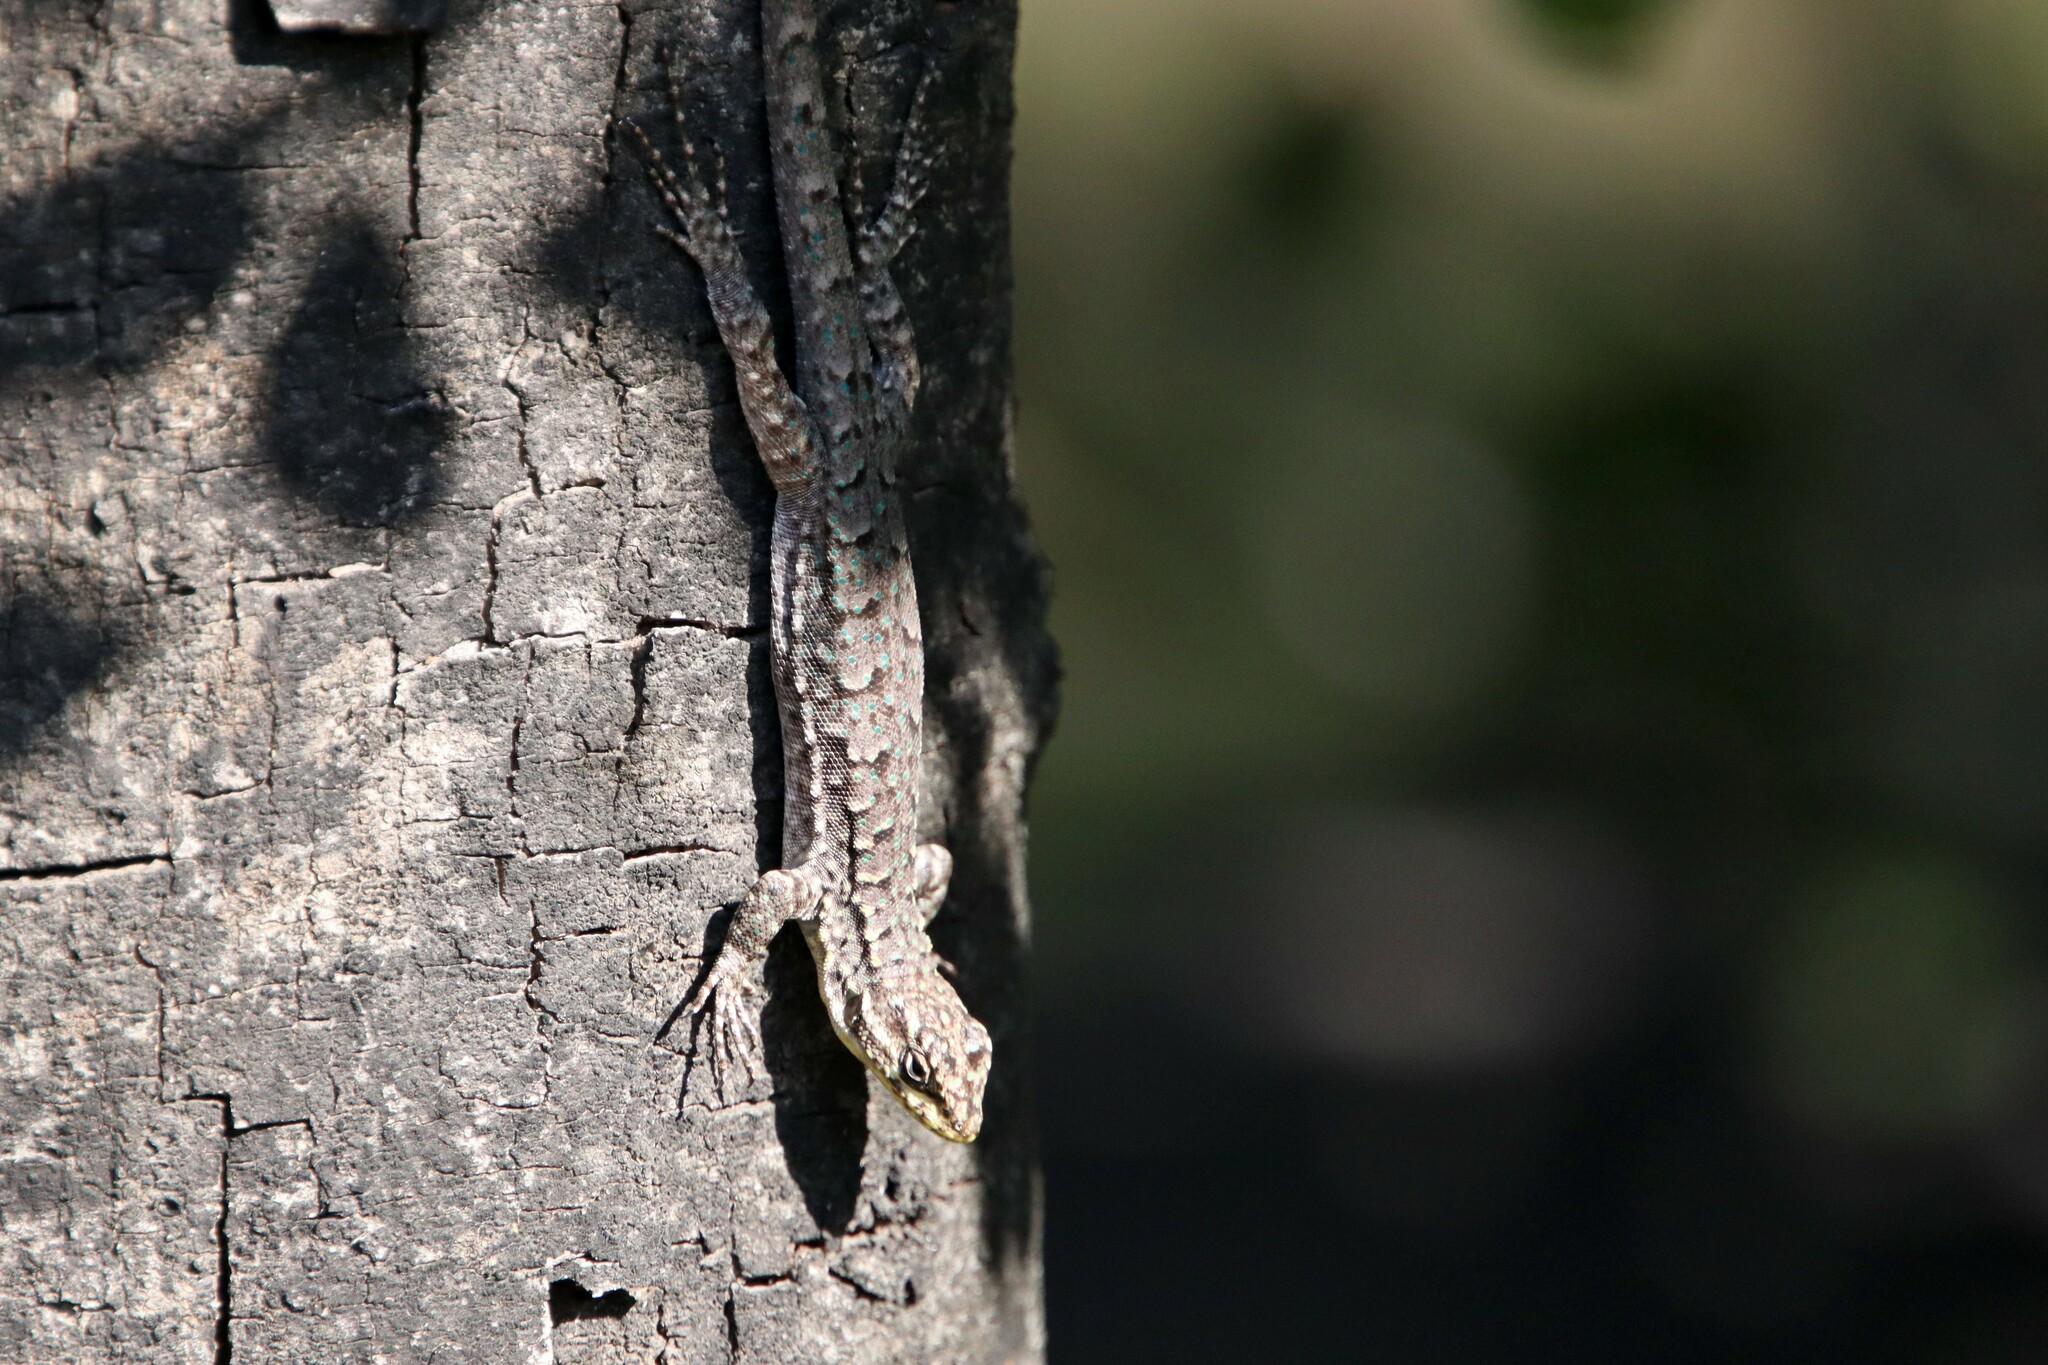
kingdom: Animalia
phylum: Chordata
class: Squamata
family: Liolaemidae
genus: Liolaemus
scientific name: Liolaemus tenuis
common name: Thin tree iguana
